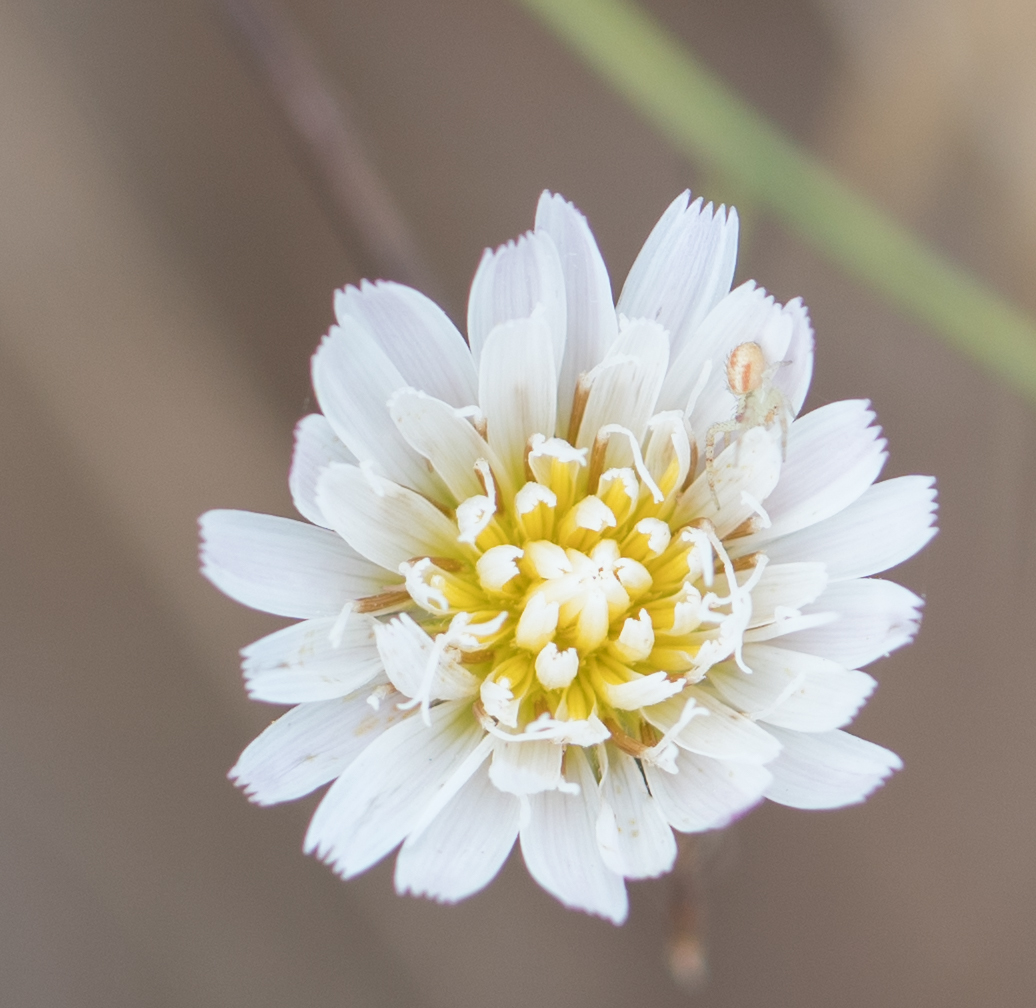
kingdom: Plantae
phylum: Tracheophyta
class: Magnoliopsida
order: Asterales
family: Asteraceae
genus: Malacothrix
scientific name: Malacothrix saxatilis
